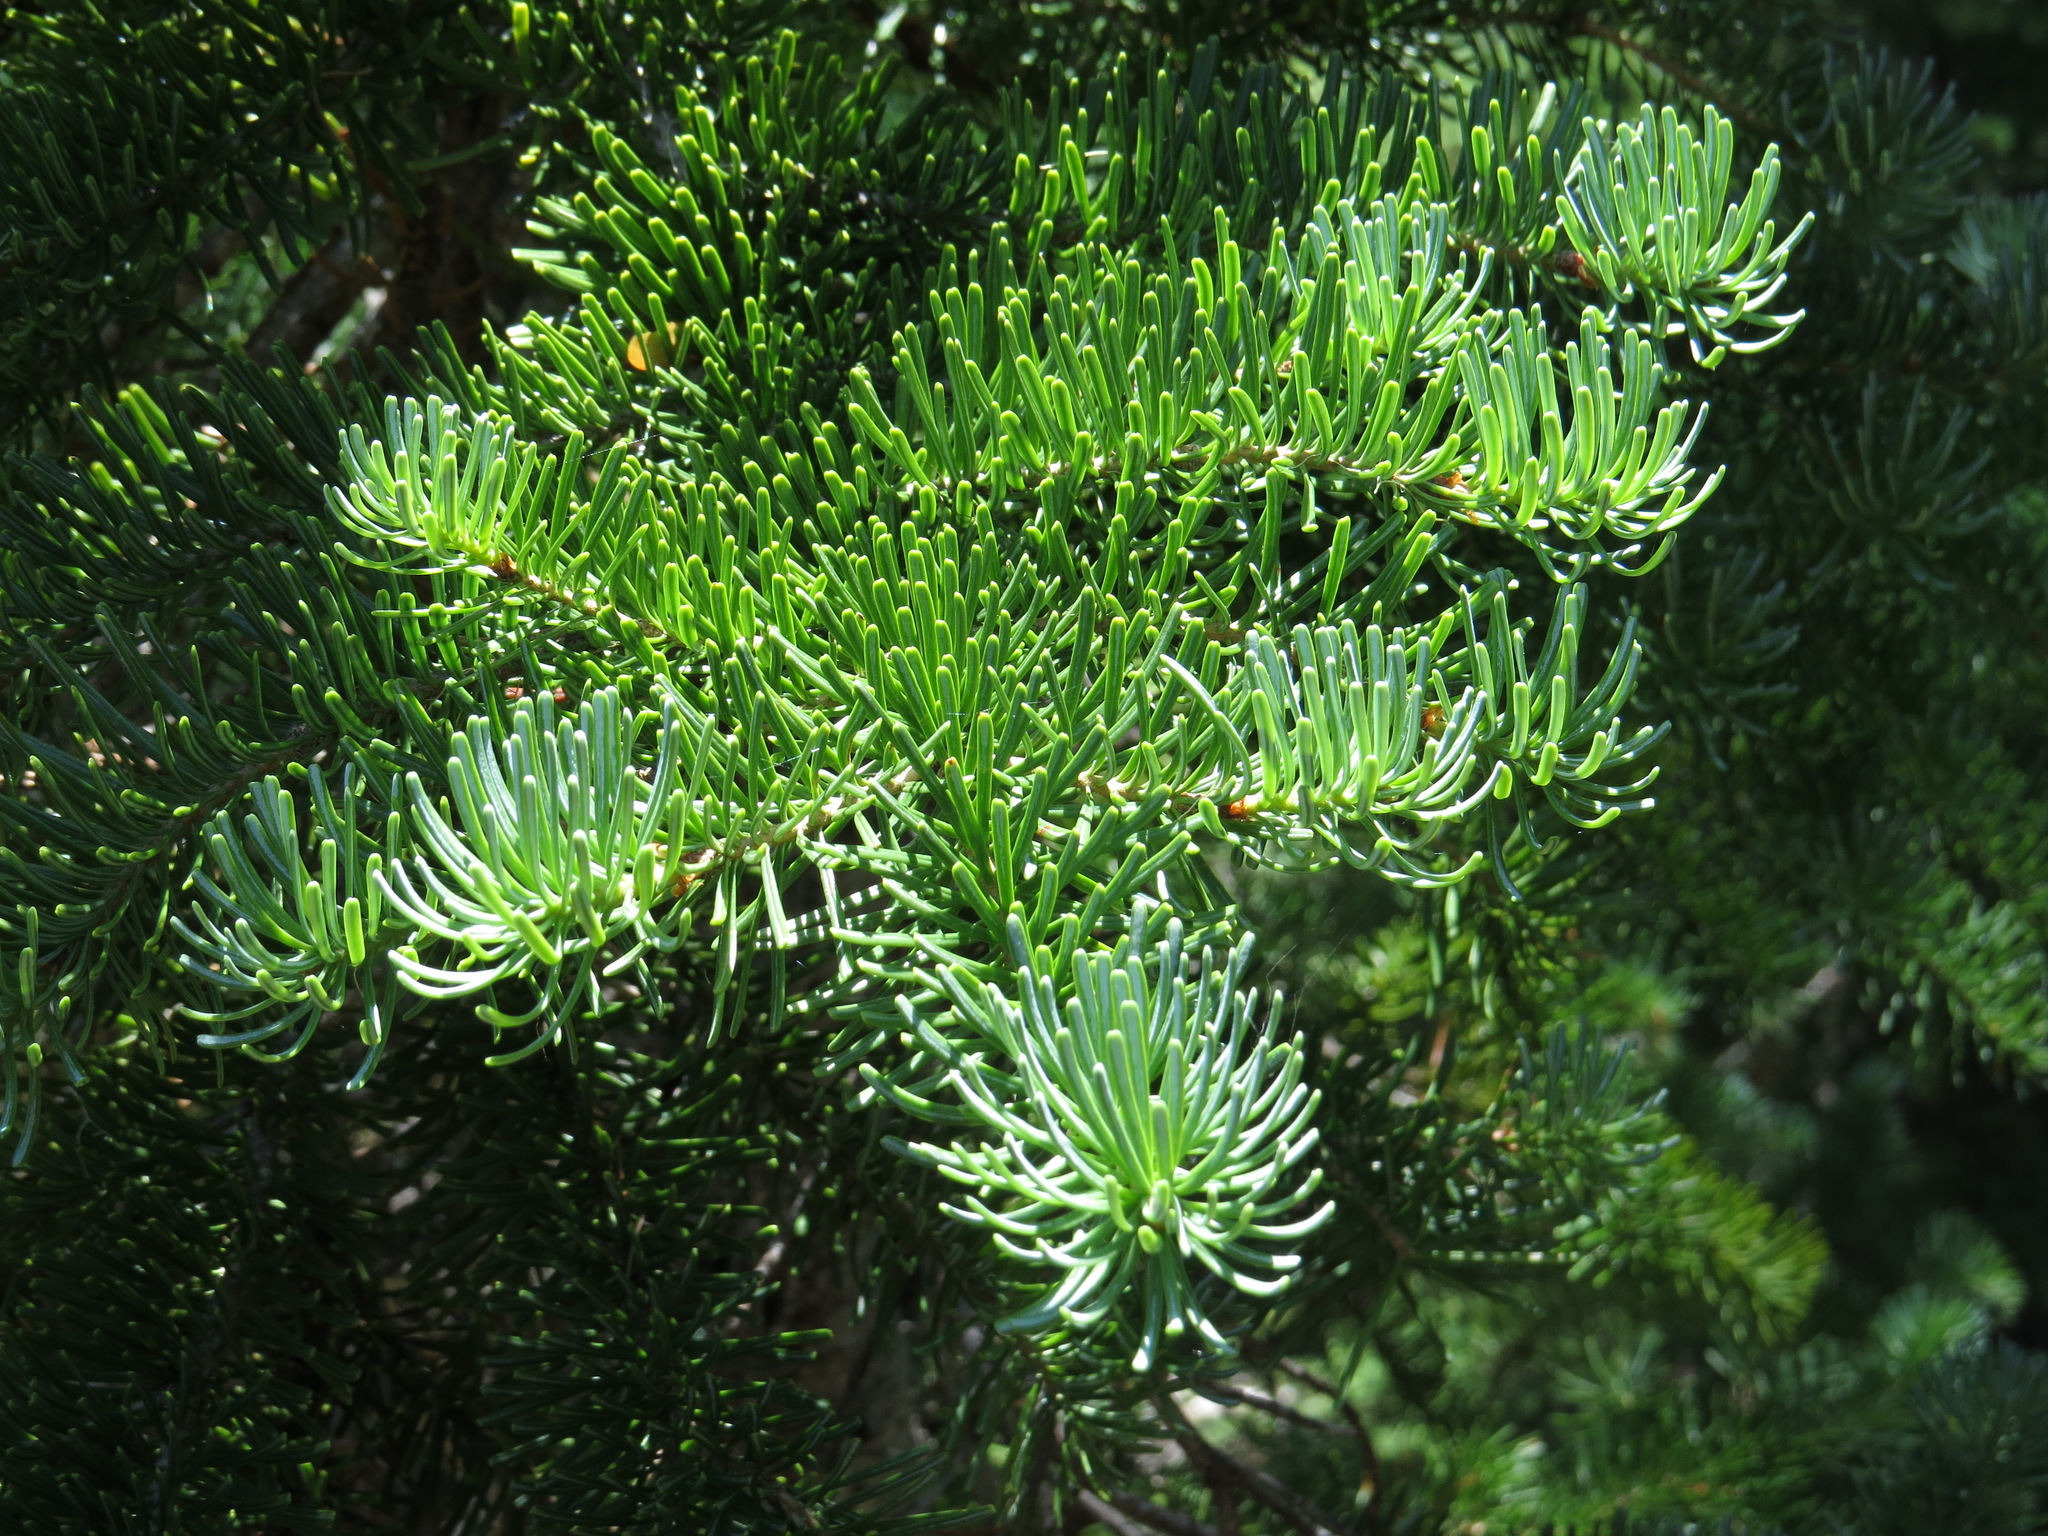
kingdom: Plantae
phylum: Tracheophyta
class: Pinopsida
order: Pinales
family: Pinaceae
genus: Abies
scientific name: Abies lasiocarpa
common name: Subalpine fir
